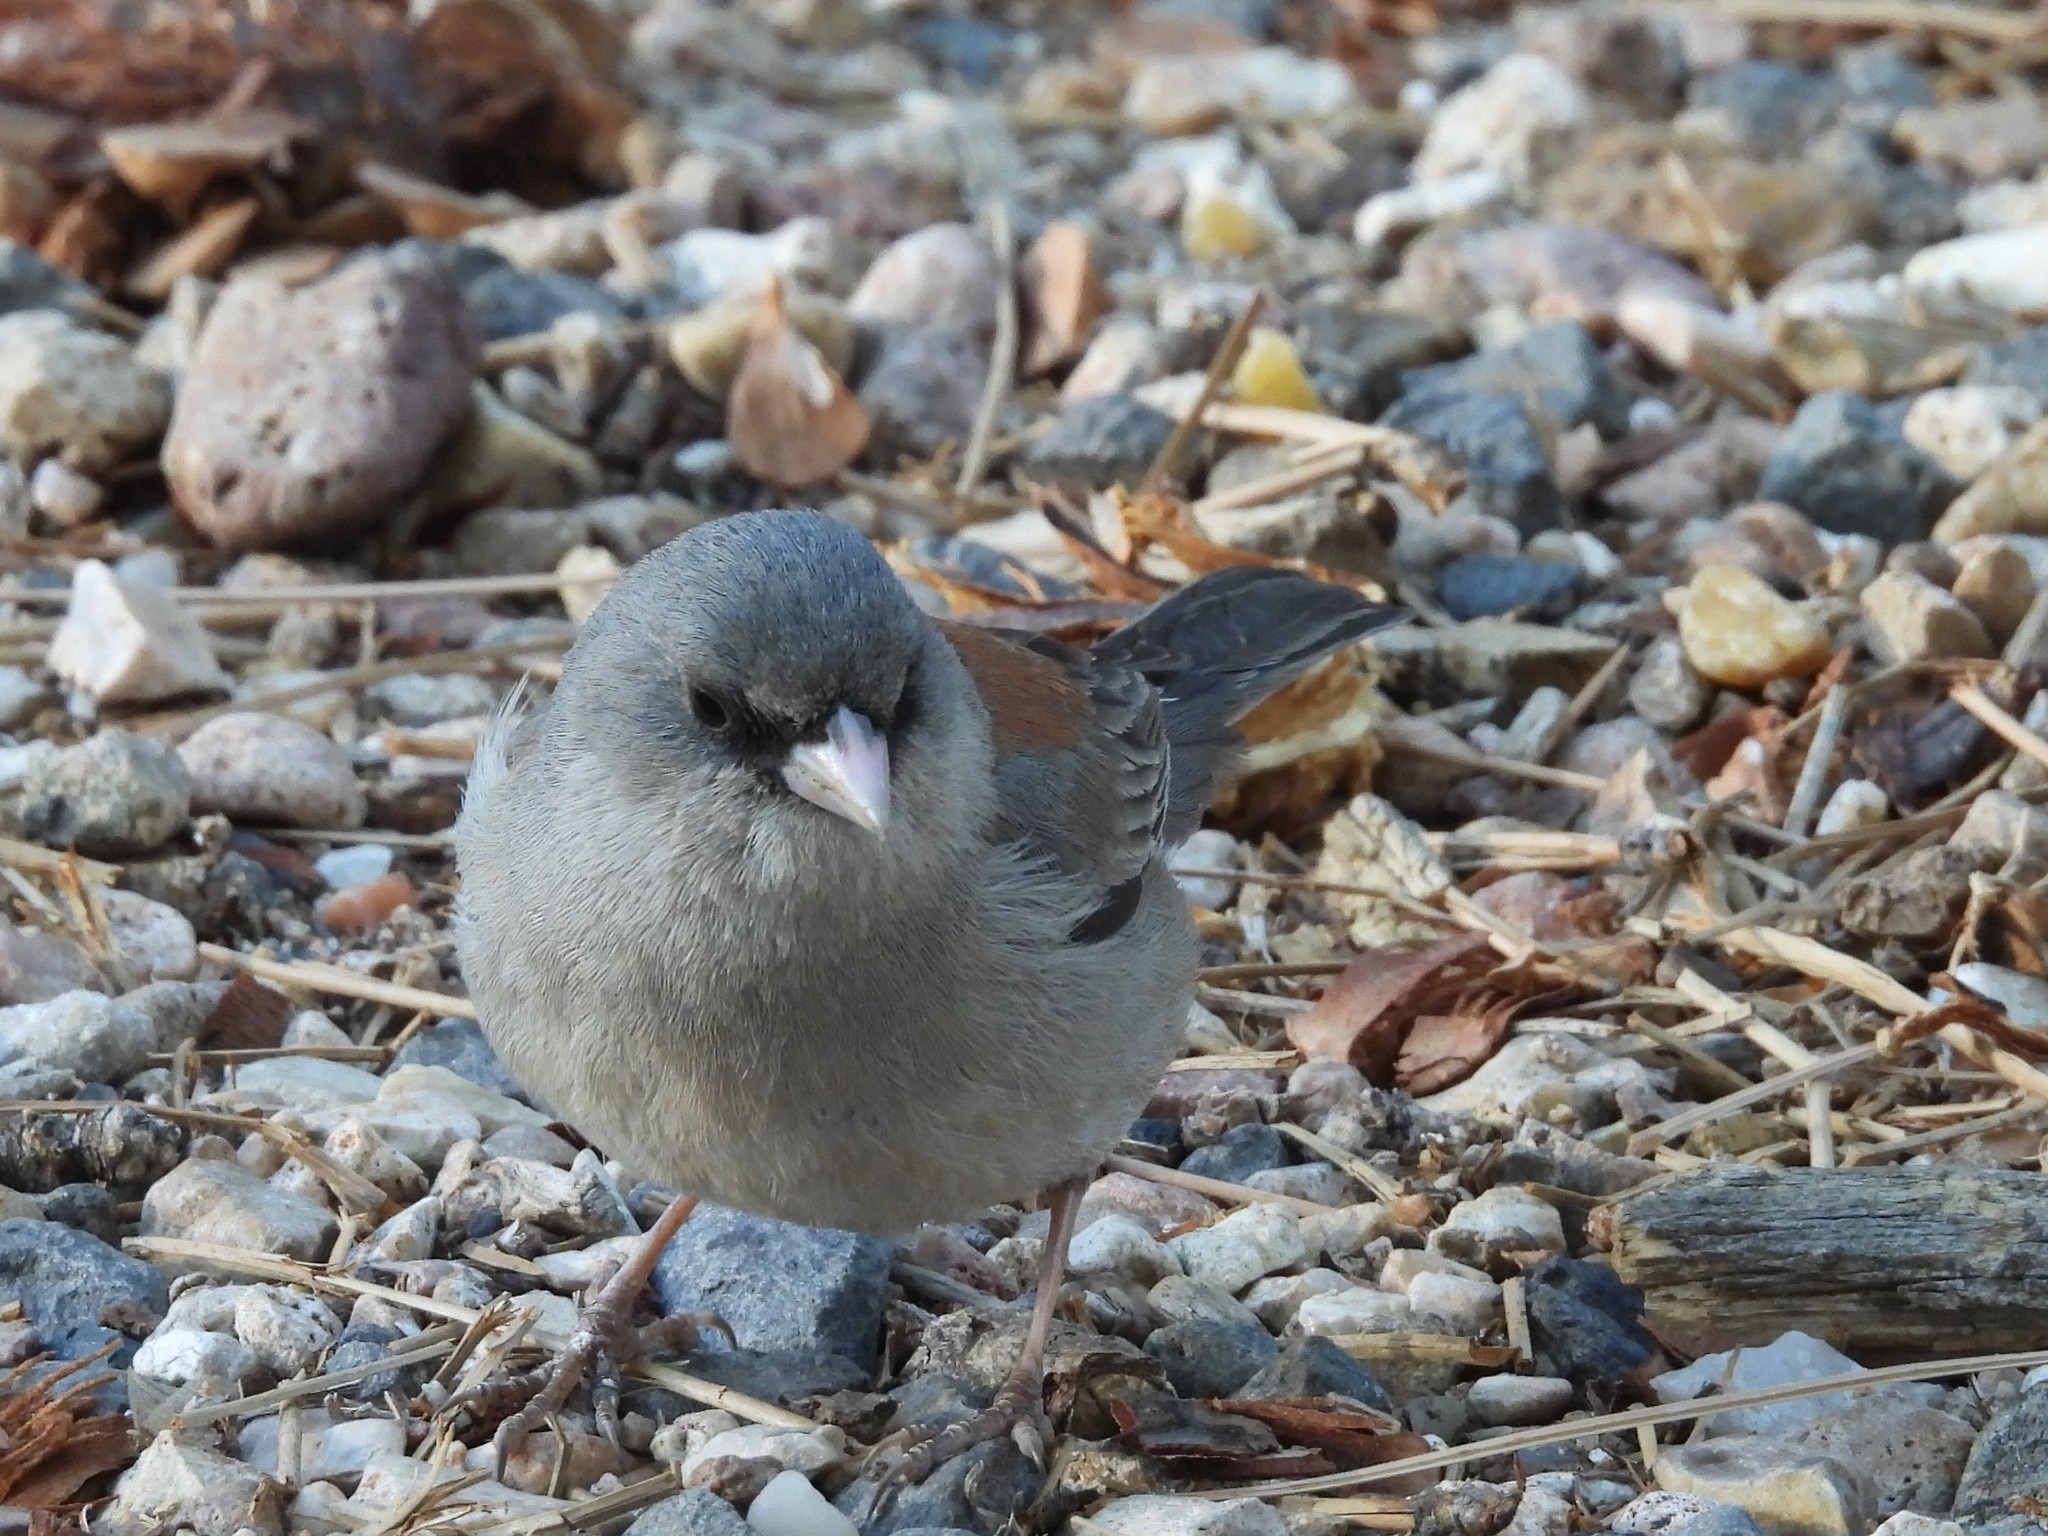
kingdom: Animalia
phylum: Chordata
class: Aves
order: Passeriformes
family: Passerellidae
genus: Junco
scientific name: Junco hyemalis
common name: Dark-eyed junco
